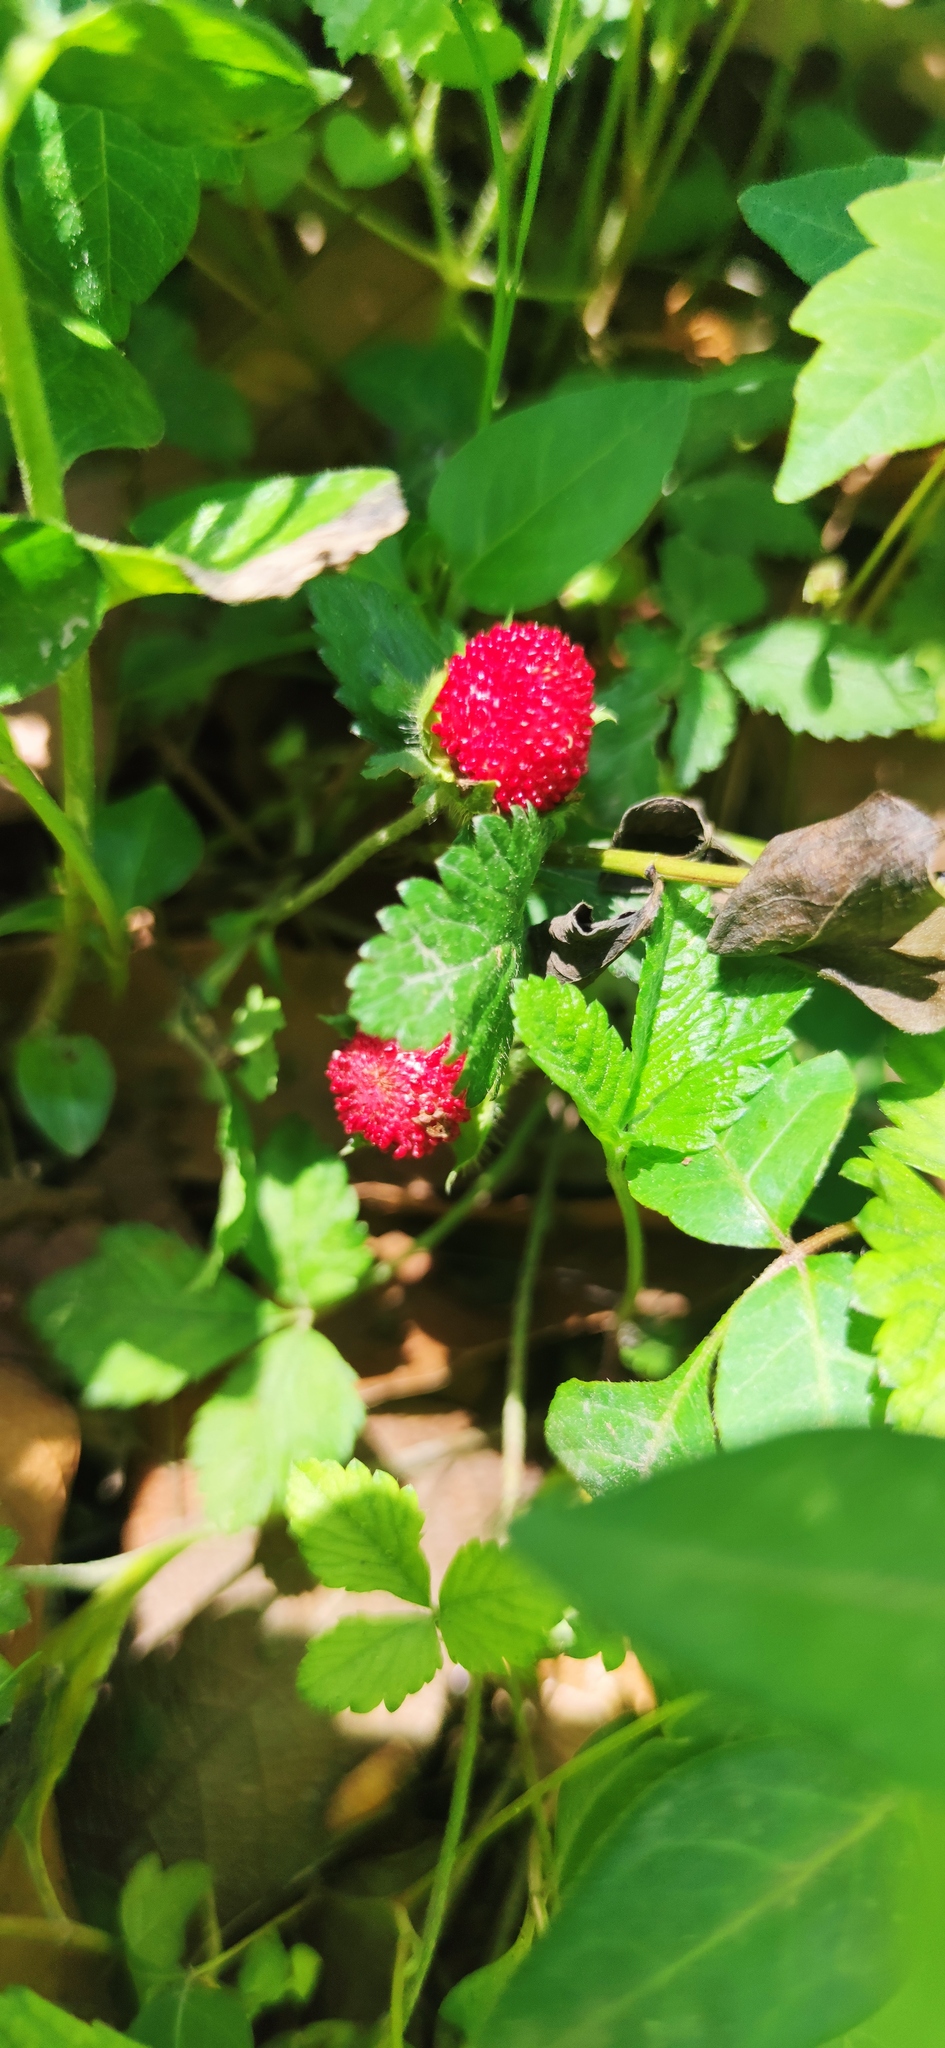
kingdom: Plantae
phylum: Tracheophyta
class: Magnoliopsida
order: Rosales
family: Rosaceae
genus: Potentilla
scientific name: Potentilla indica
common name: Yellow-flowered strawberry
